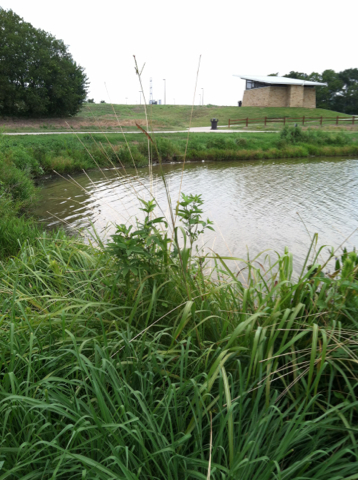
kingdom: Plantae
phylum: Tracheophyta
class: Liliopsida
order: Poales
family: Poaceae
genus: Tripsacum
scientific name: Tripsacum dactyloides
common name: Buffalo-grass
